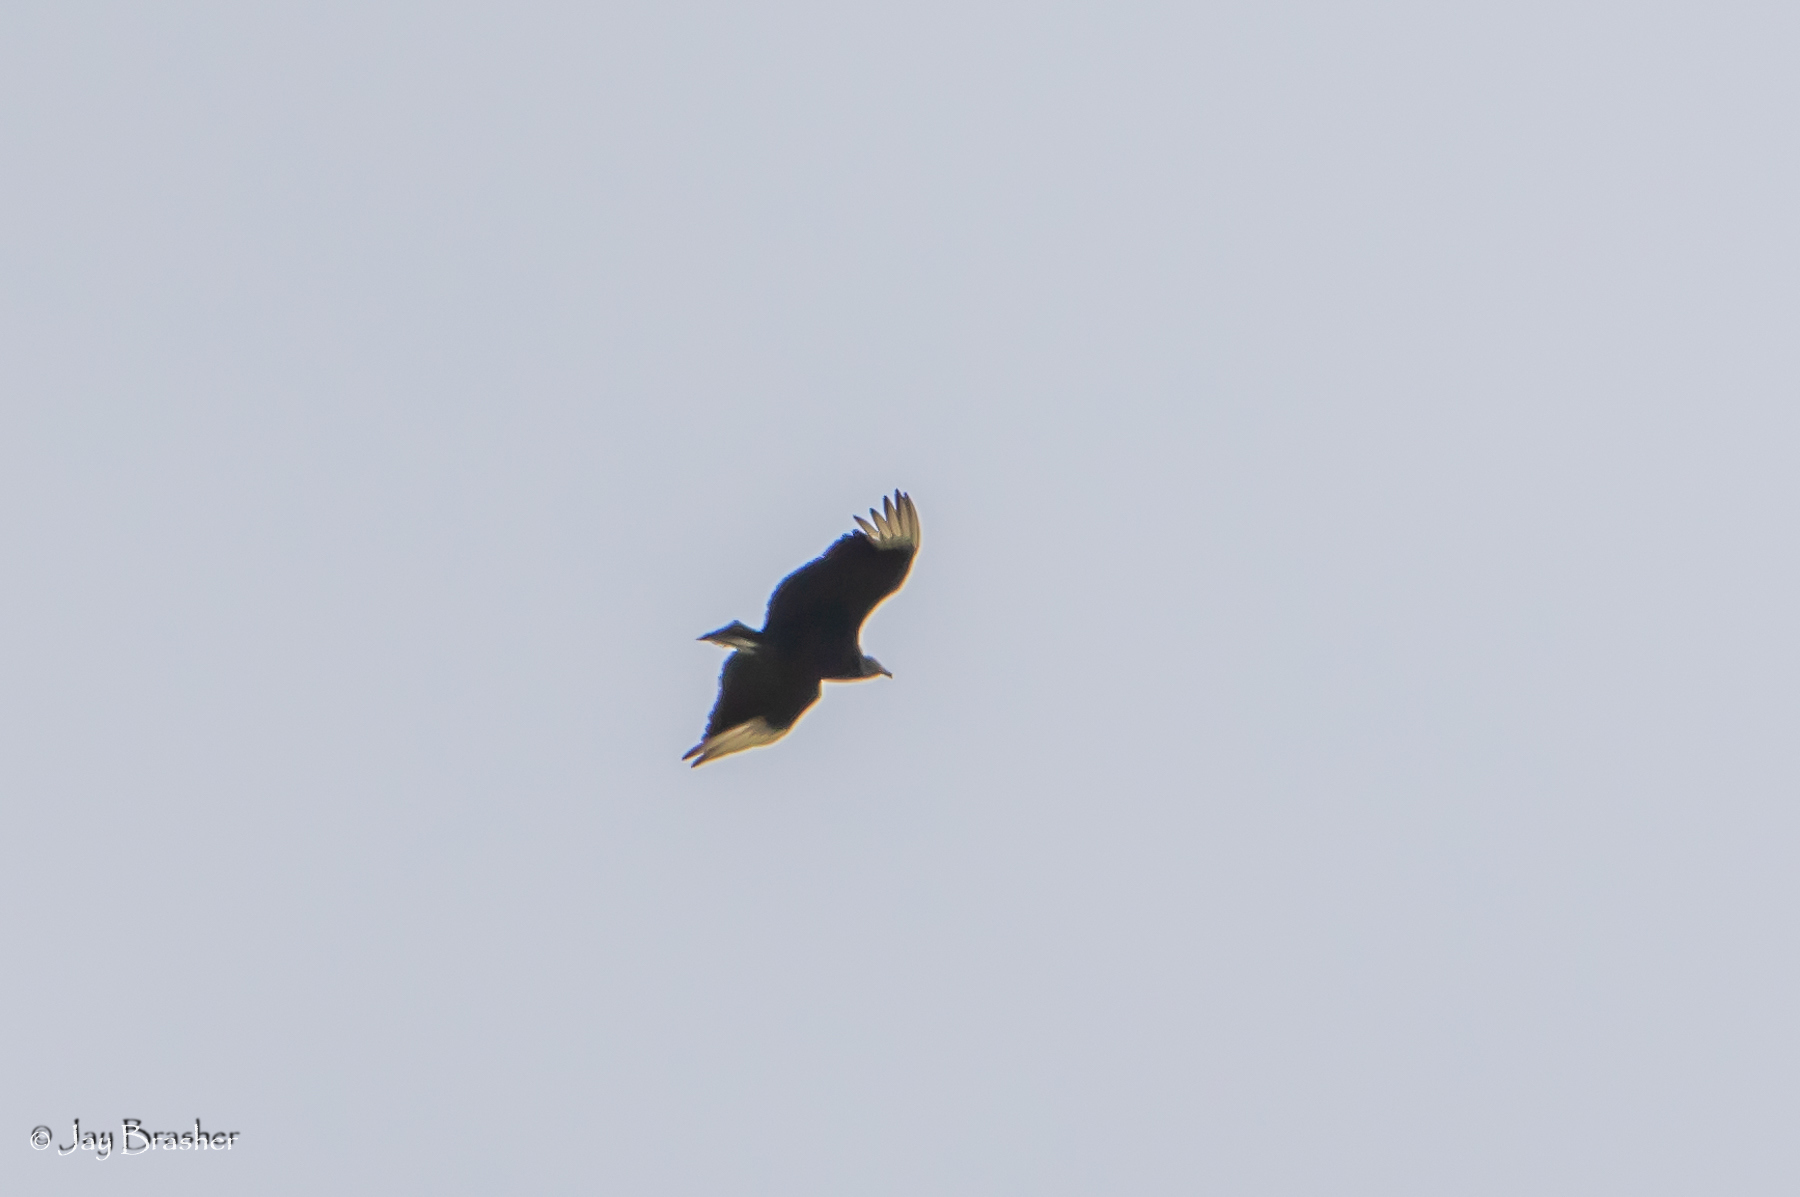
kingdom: Animalia
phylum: Chordata
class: Aves
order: Accipitriformes
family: Cathartidae
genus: Coragyps
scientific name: Coragyps atratus
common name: Black vulture
